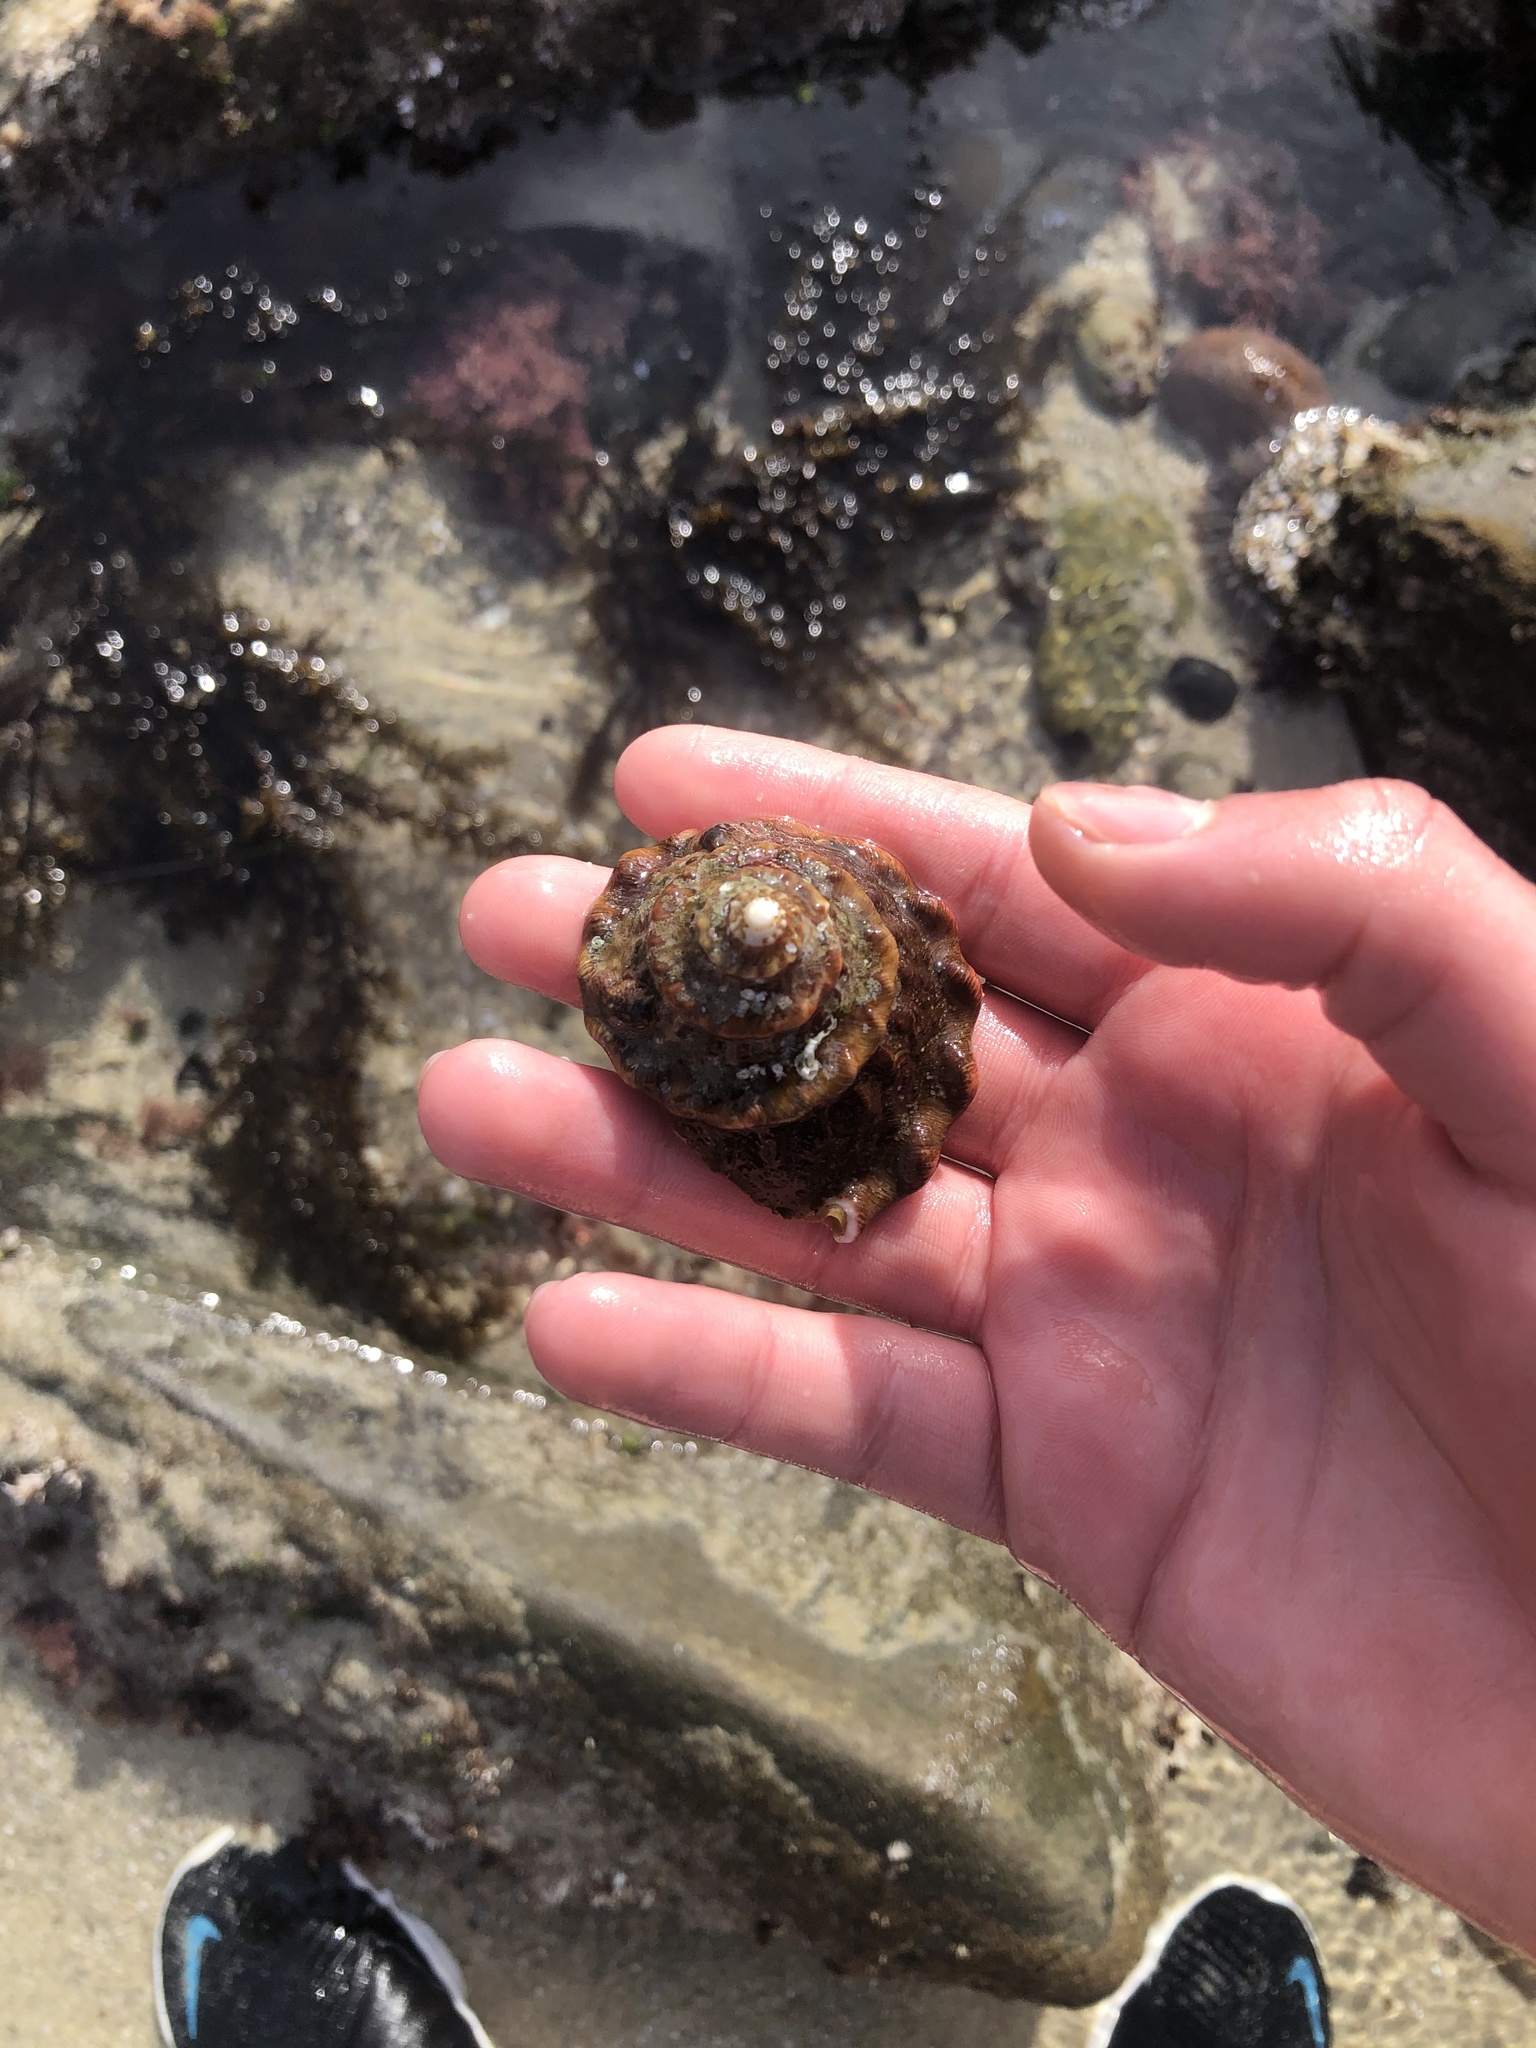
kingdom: Animalia
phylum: Mollusca
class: Gastropoda
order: Trochida
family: Turbinidae
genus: Megastraea
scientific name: Megastraea undosa
